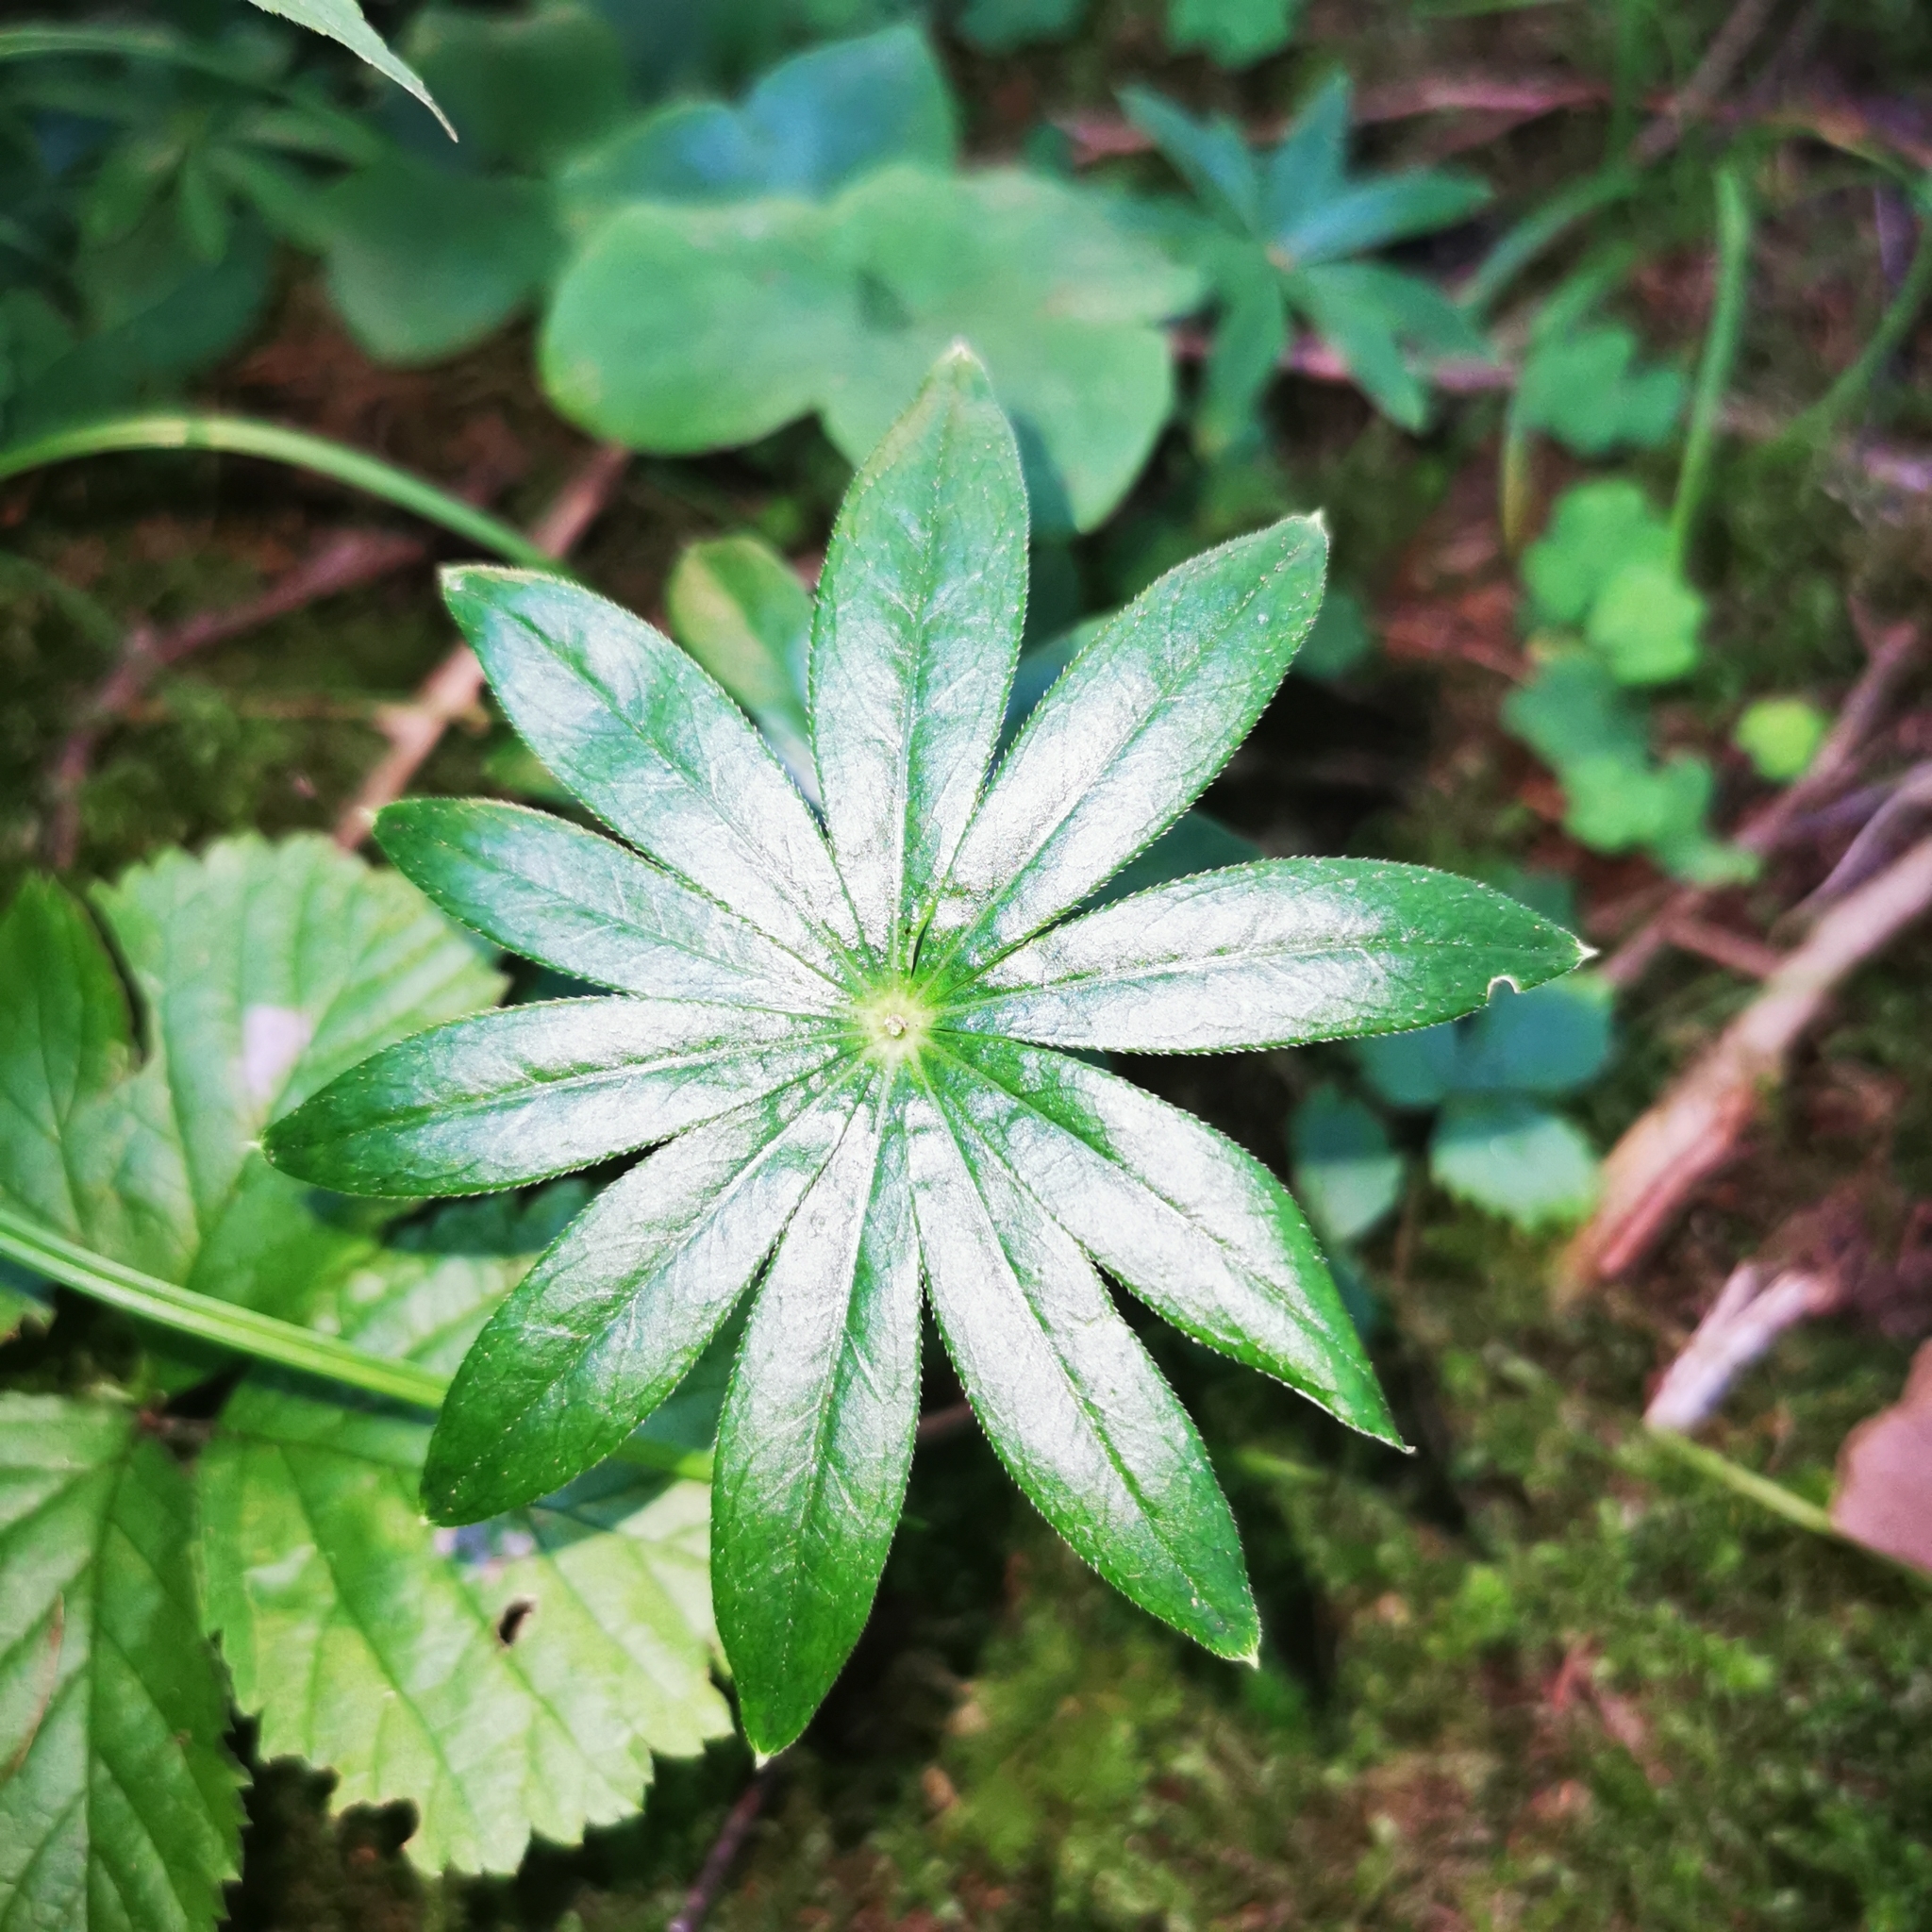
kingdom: Plantae
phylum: Tracheophyta
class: Magnoliopsida
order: Gentianales
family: Rubiaceae
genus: Galium
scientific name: Galium odoratum
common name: Sweet woodruff
